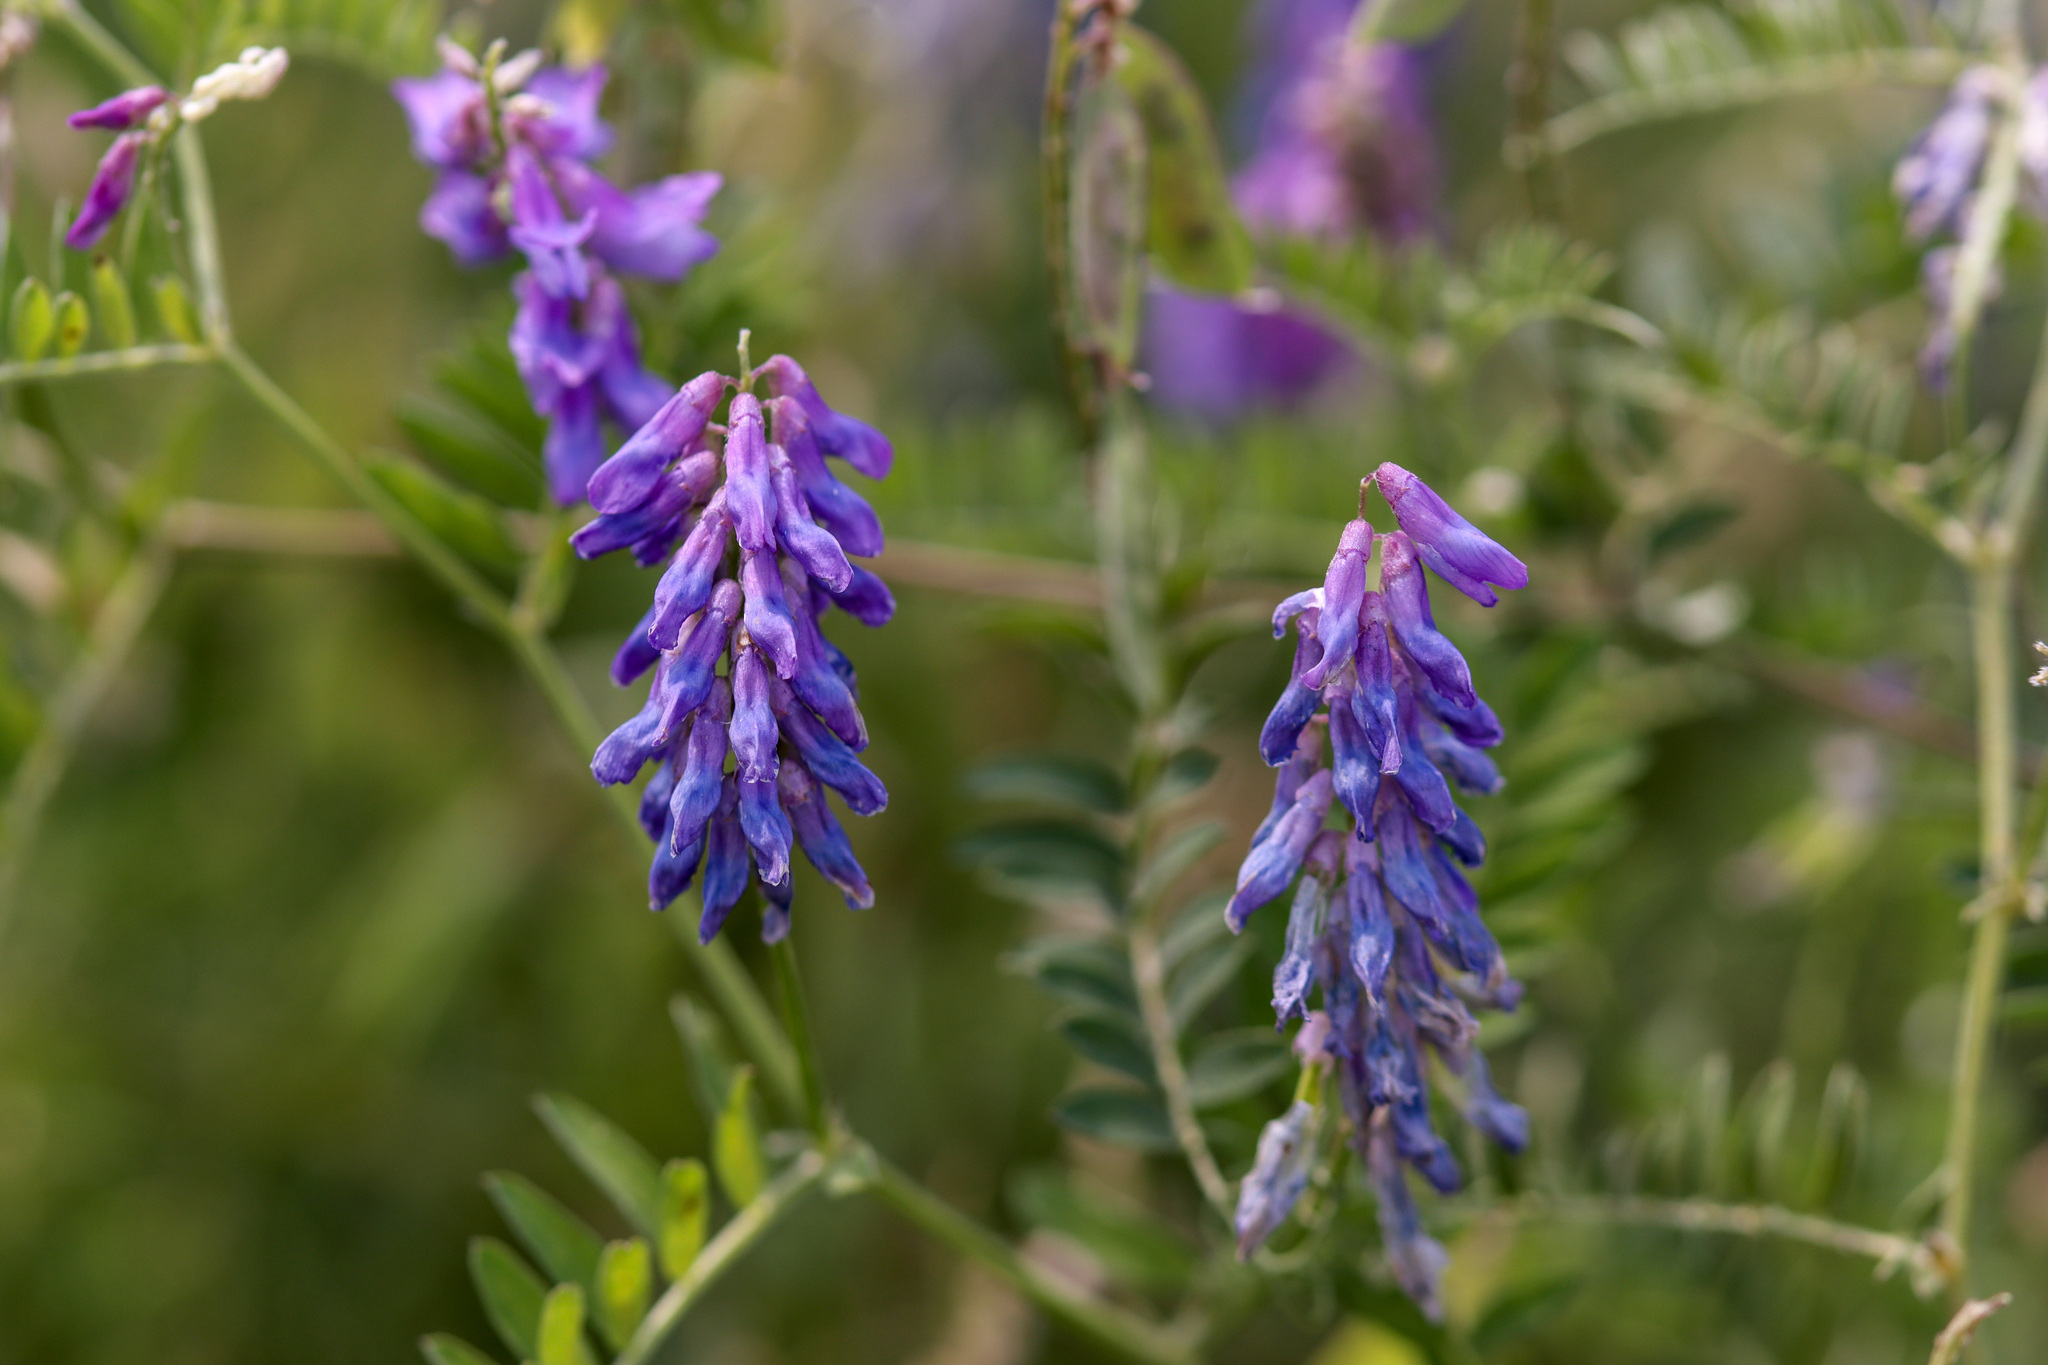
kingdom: Plantae
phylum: Tracheophyta
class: Magnoliopsida
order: Fabales
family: Fabaceae
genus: Vicia
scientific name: Vicia cracca
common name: Bird vetch
